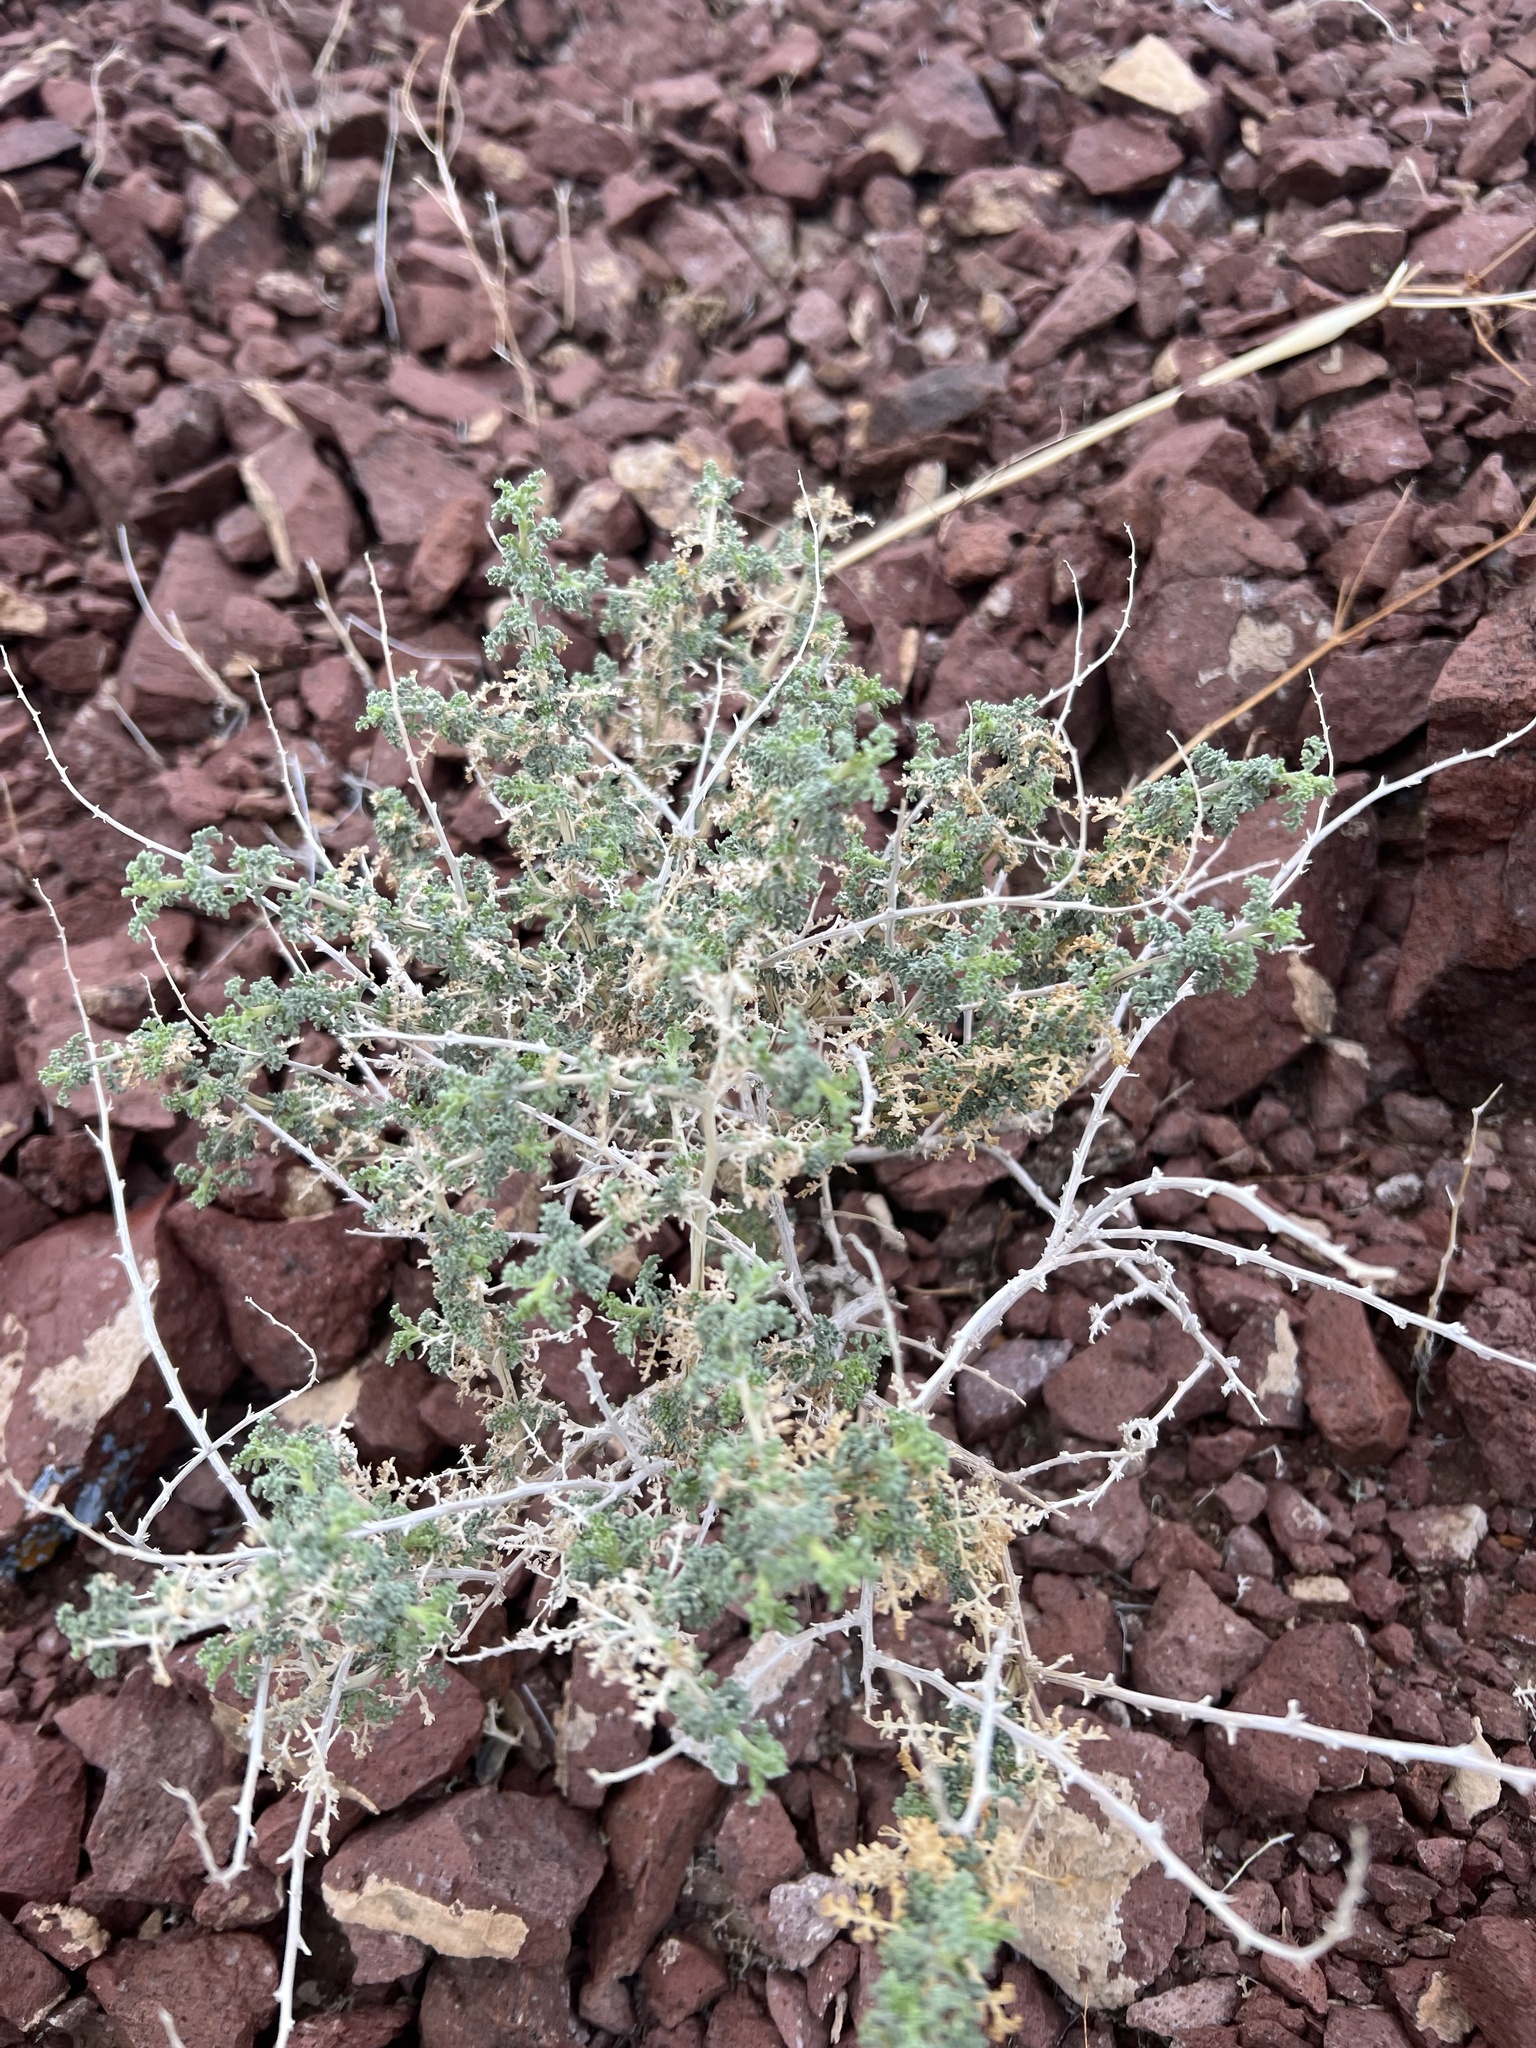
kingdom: Plantae
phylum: Tracheophyta
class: Magnoliopsida
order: Asterales
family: Asteraceae
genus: Ambrosia
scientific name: Ambrosia dumosa
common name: Bur-sage
